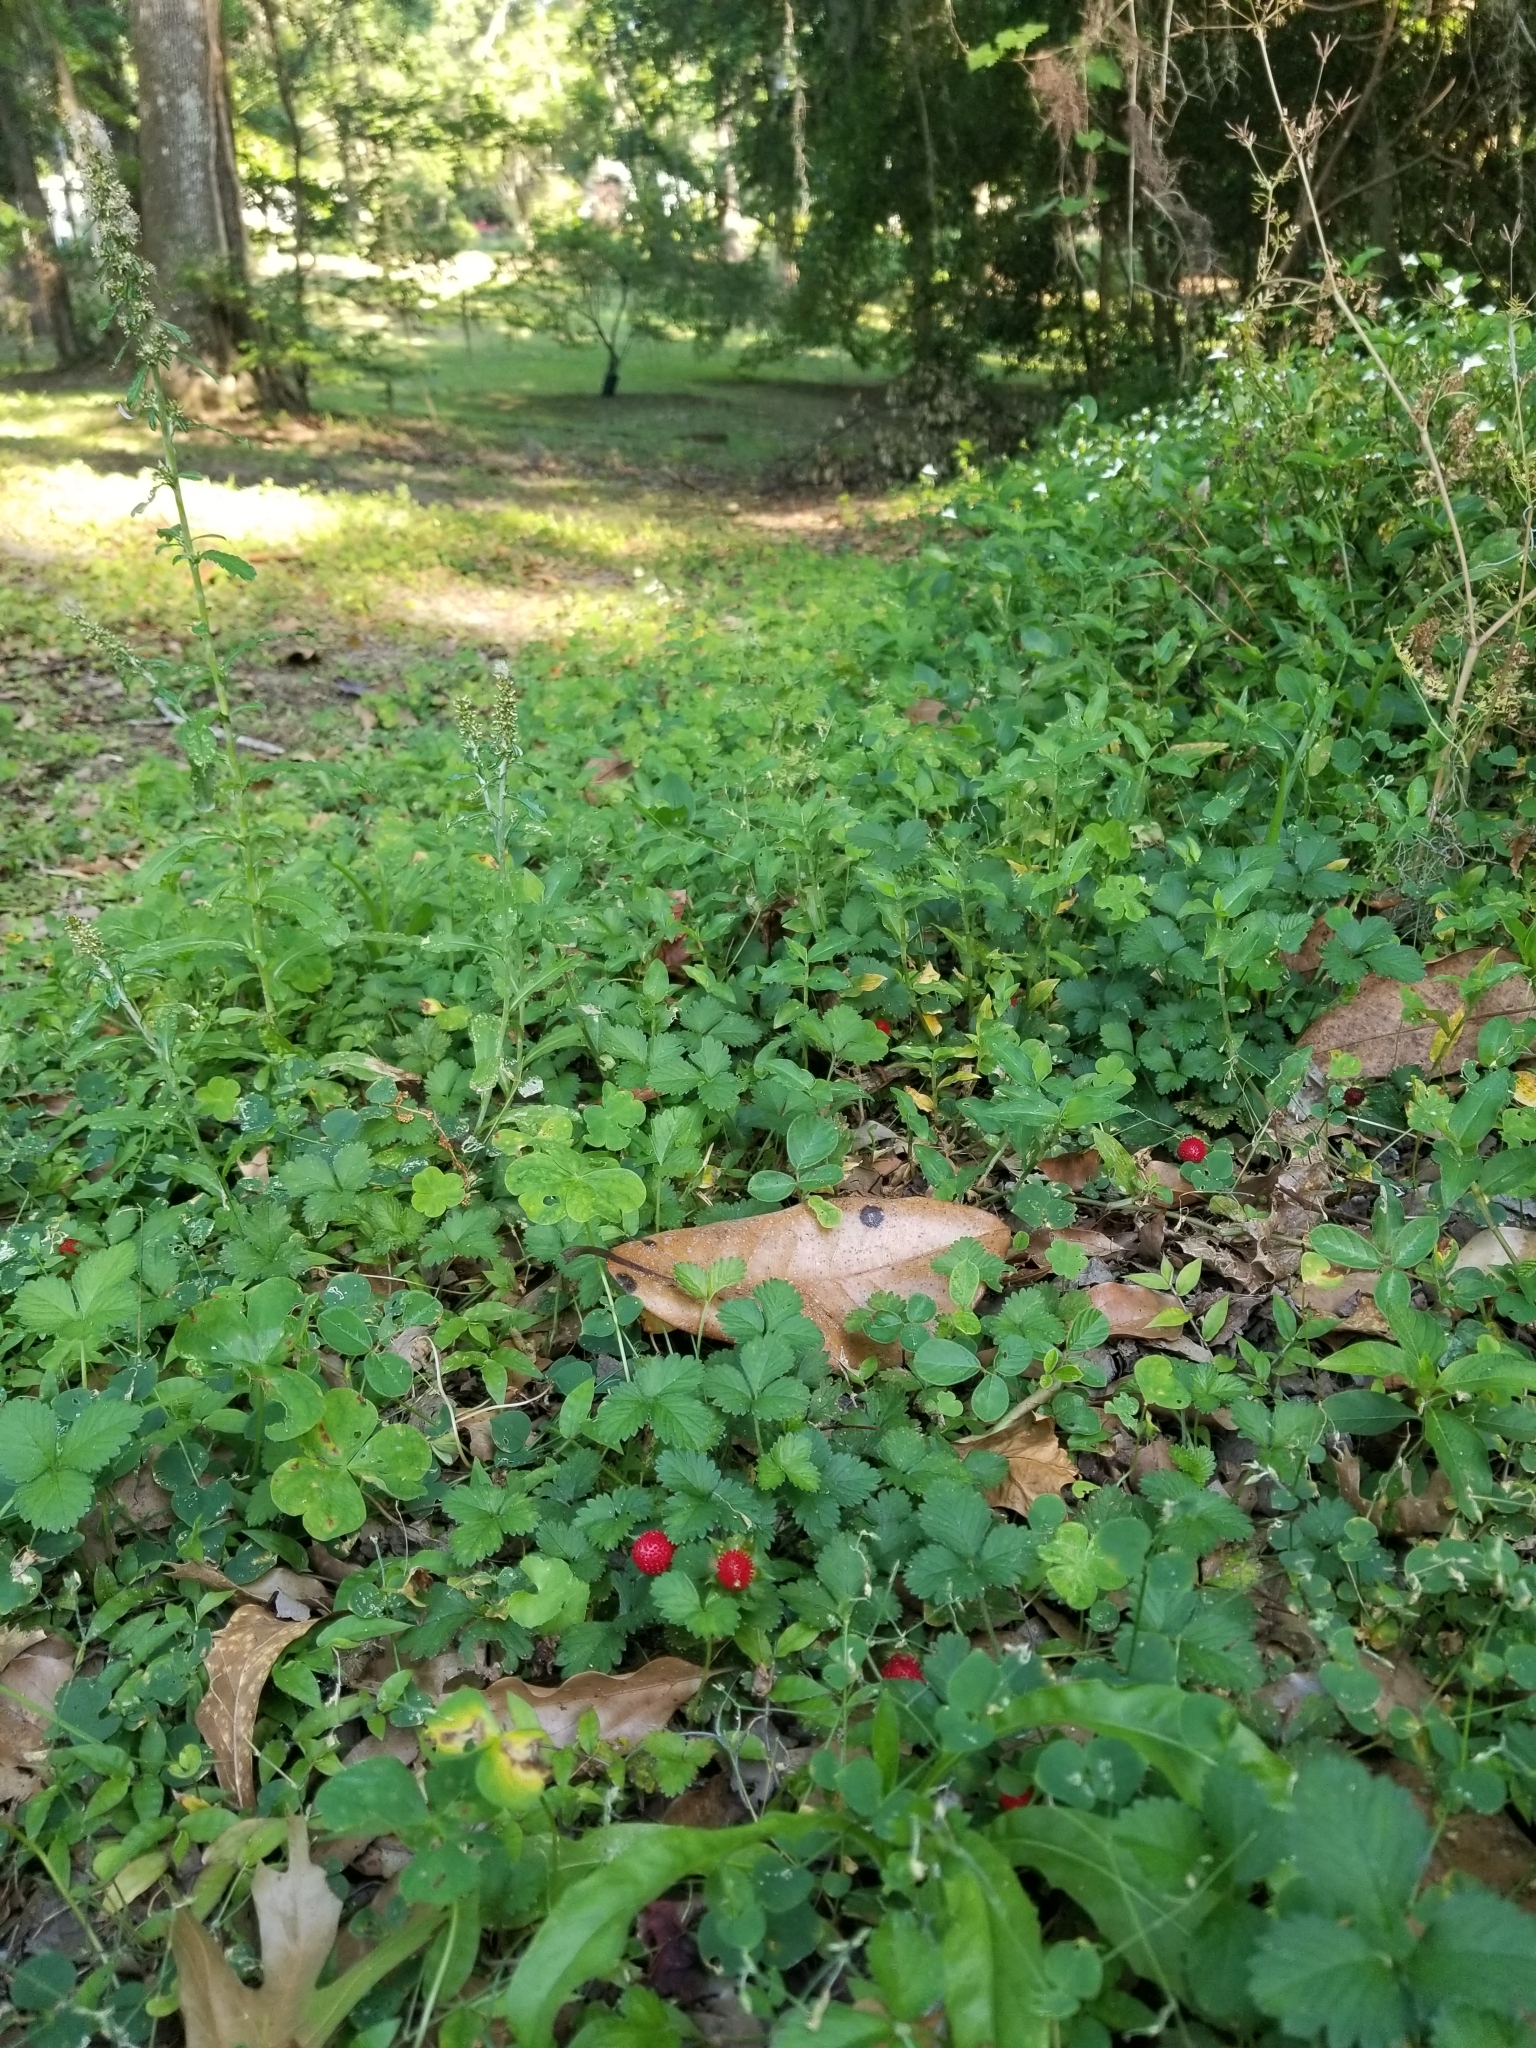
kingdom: Plantae
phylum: Tracheophyta
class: Magnoliopsida
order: Rosales
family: Rosaceae
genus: Potentilla
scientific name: Potentilla indica
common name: Yellow-flowered strawberry
